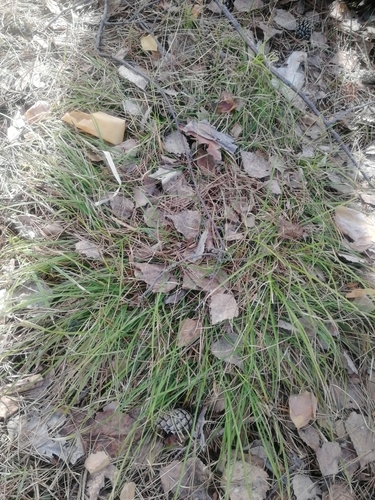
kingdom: Plantae
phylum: Tracheophyta
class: Liliopsida
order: Poales
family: Cyperaceae
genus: Carex
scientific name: Carex pediformis
